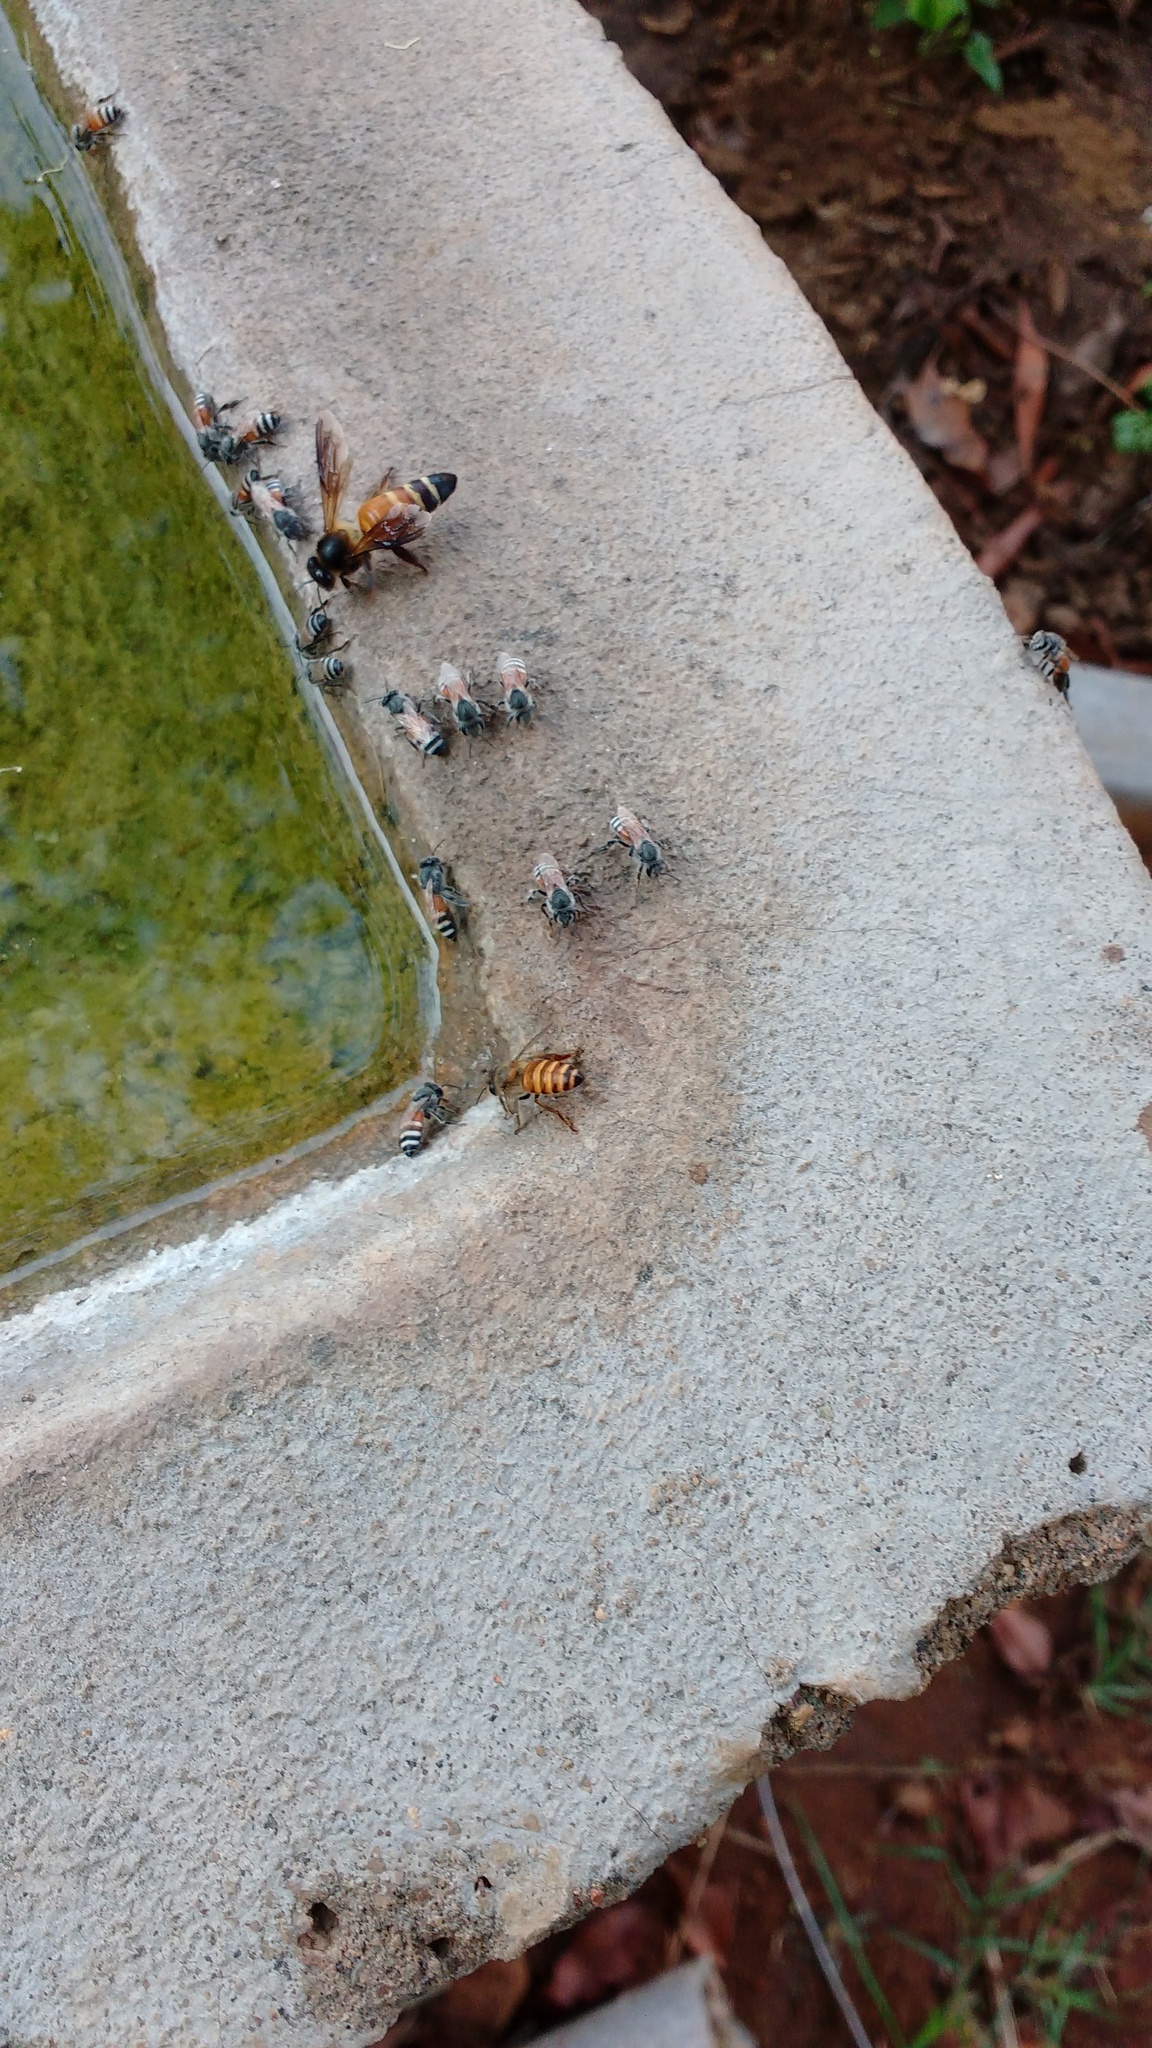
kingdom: Animalia
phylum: Arthropoda
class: Insecta
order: Hymenoptera
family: Apidae
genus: Apis
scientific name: Apis dorsata
